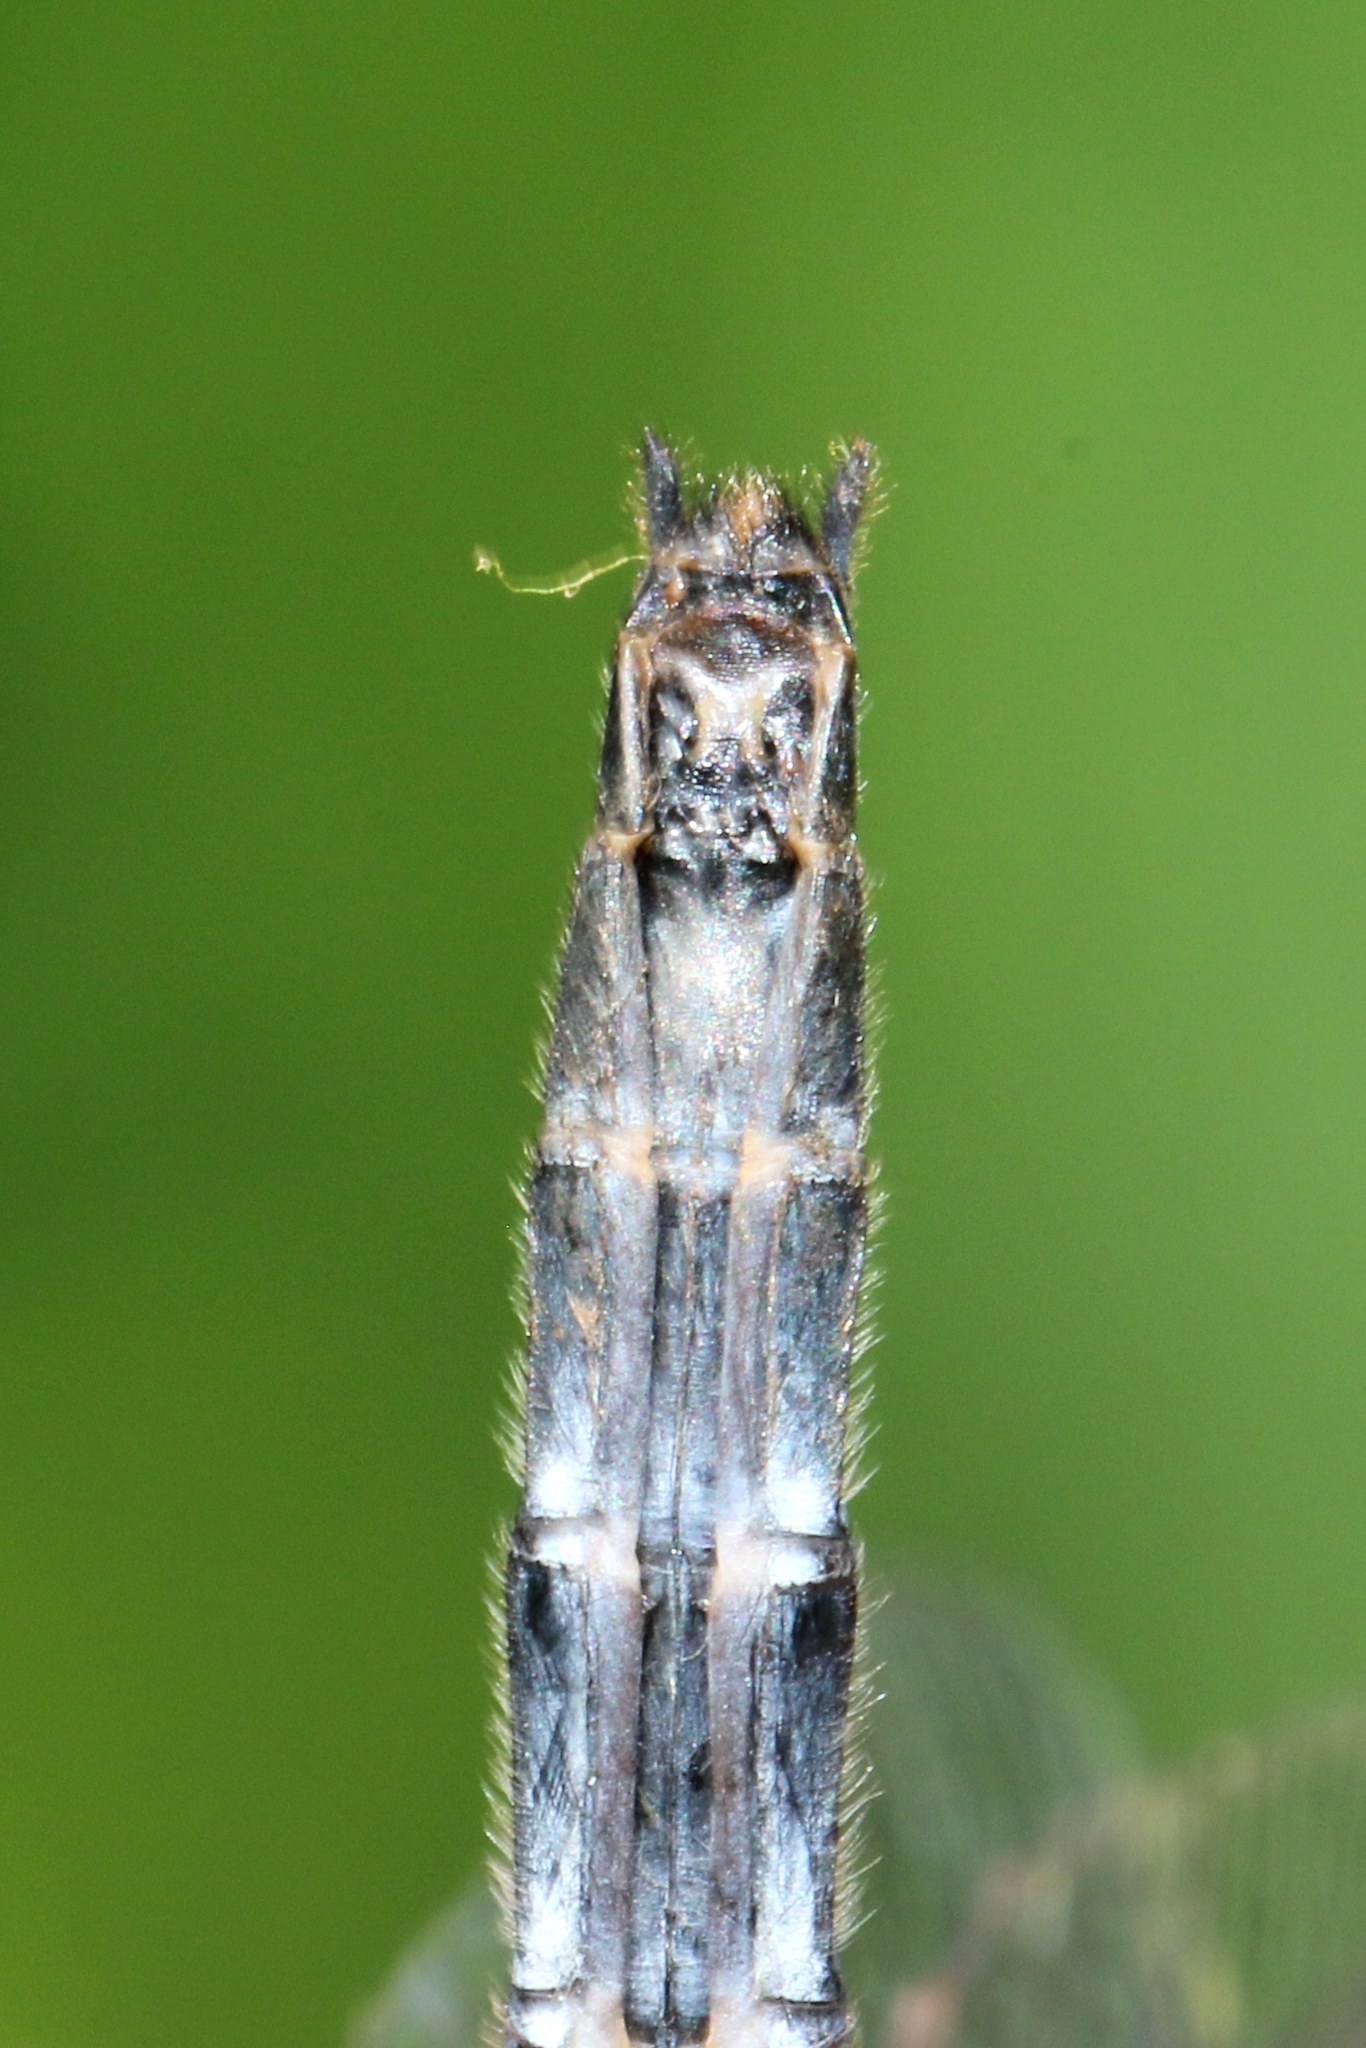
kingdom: Animalia
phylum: Arthropoda
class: Insecta
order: Odonata
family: Libellulidae
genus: Leucorrhinia
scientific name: Leucorrhinia proxima
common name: Belted whiteface
